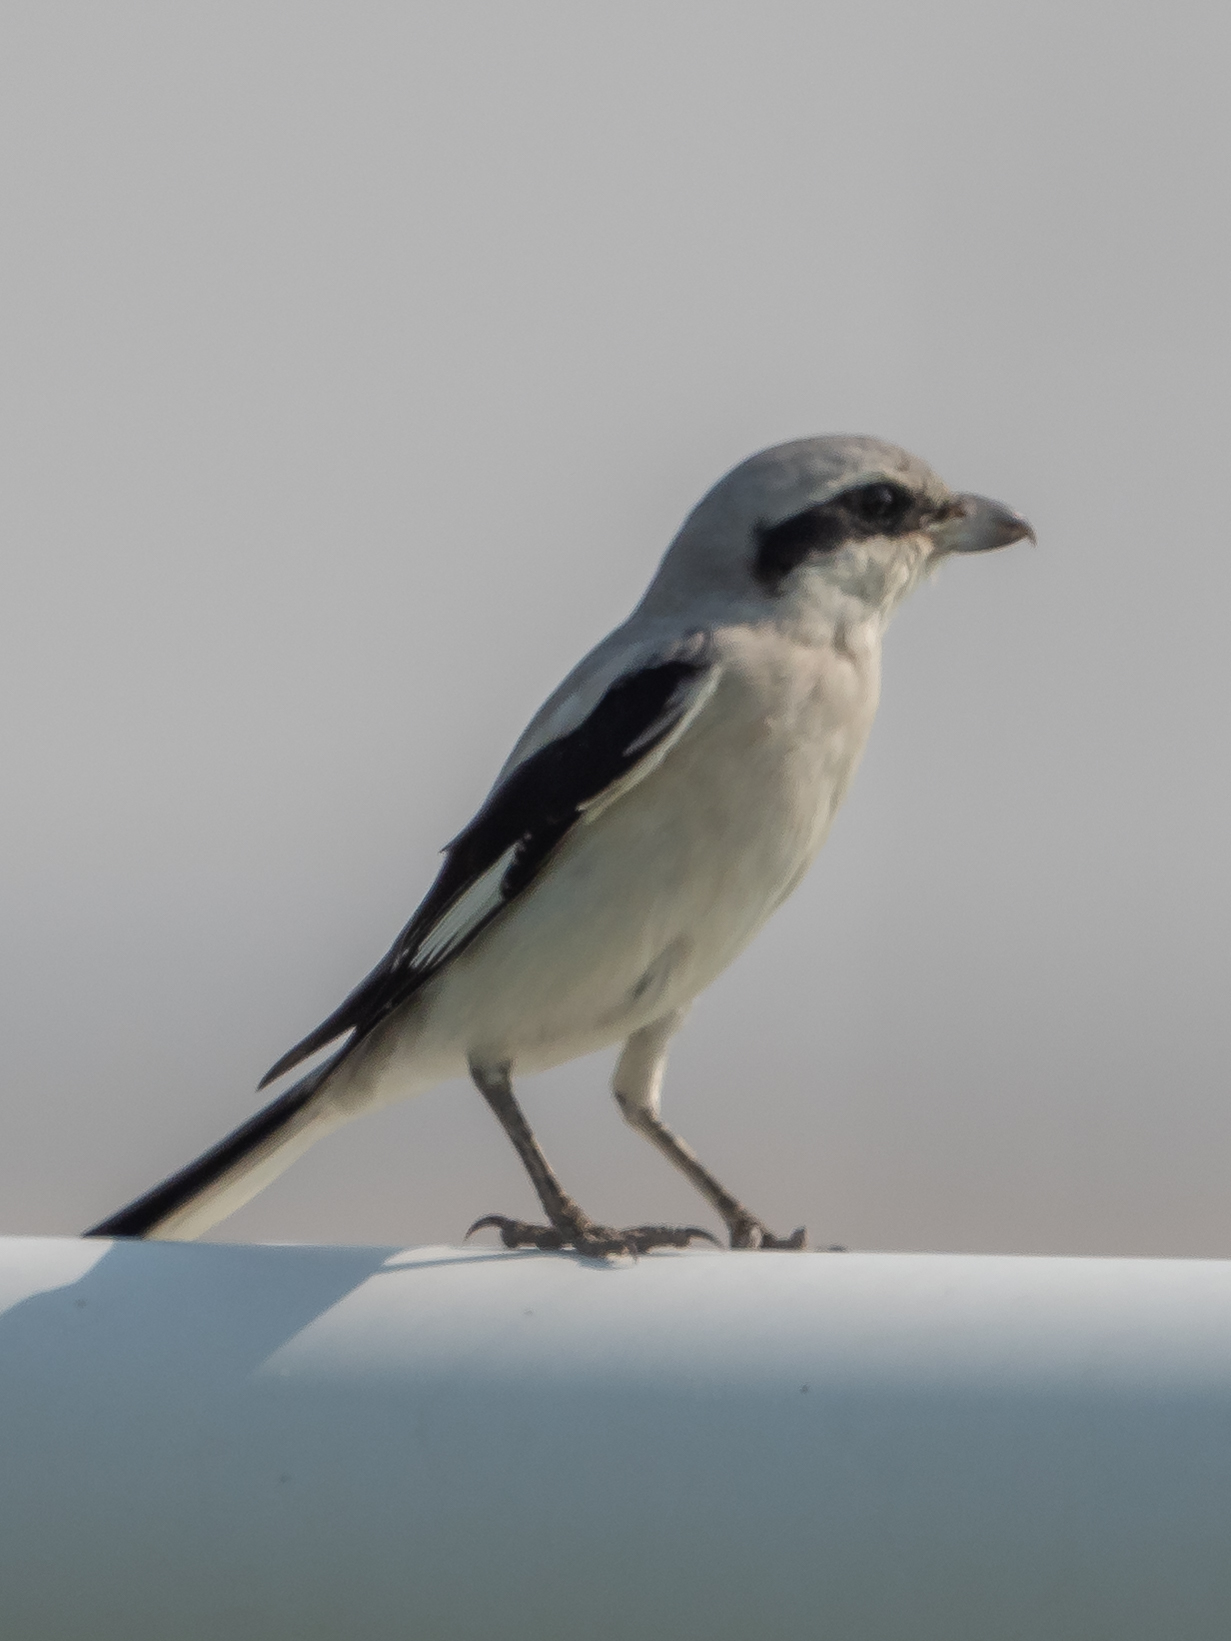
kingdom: Animalia
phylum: Chordata
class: Aves
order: Passeriformes
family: Laniidae
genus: Lanius
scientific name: Lanius excubitor
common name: Great grey shrike
